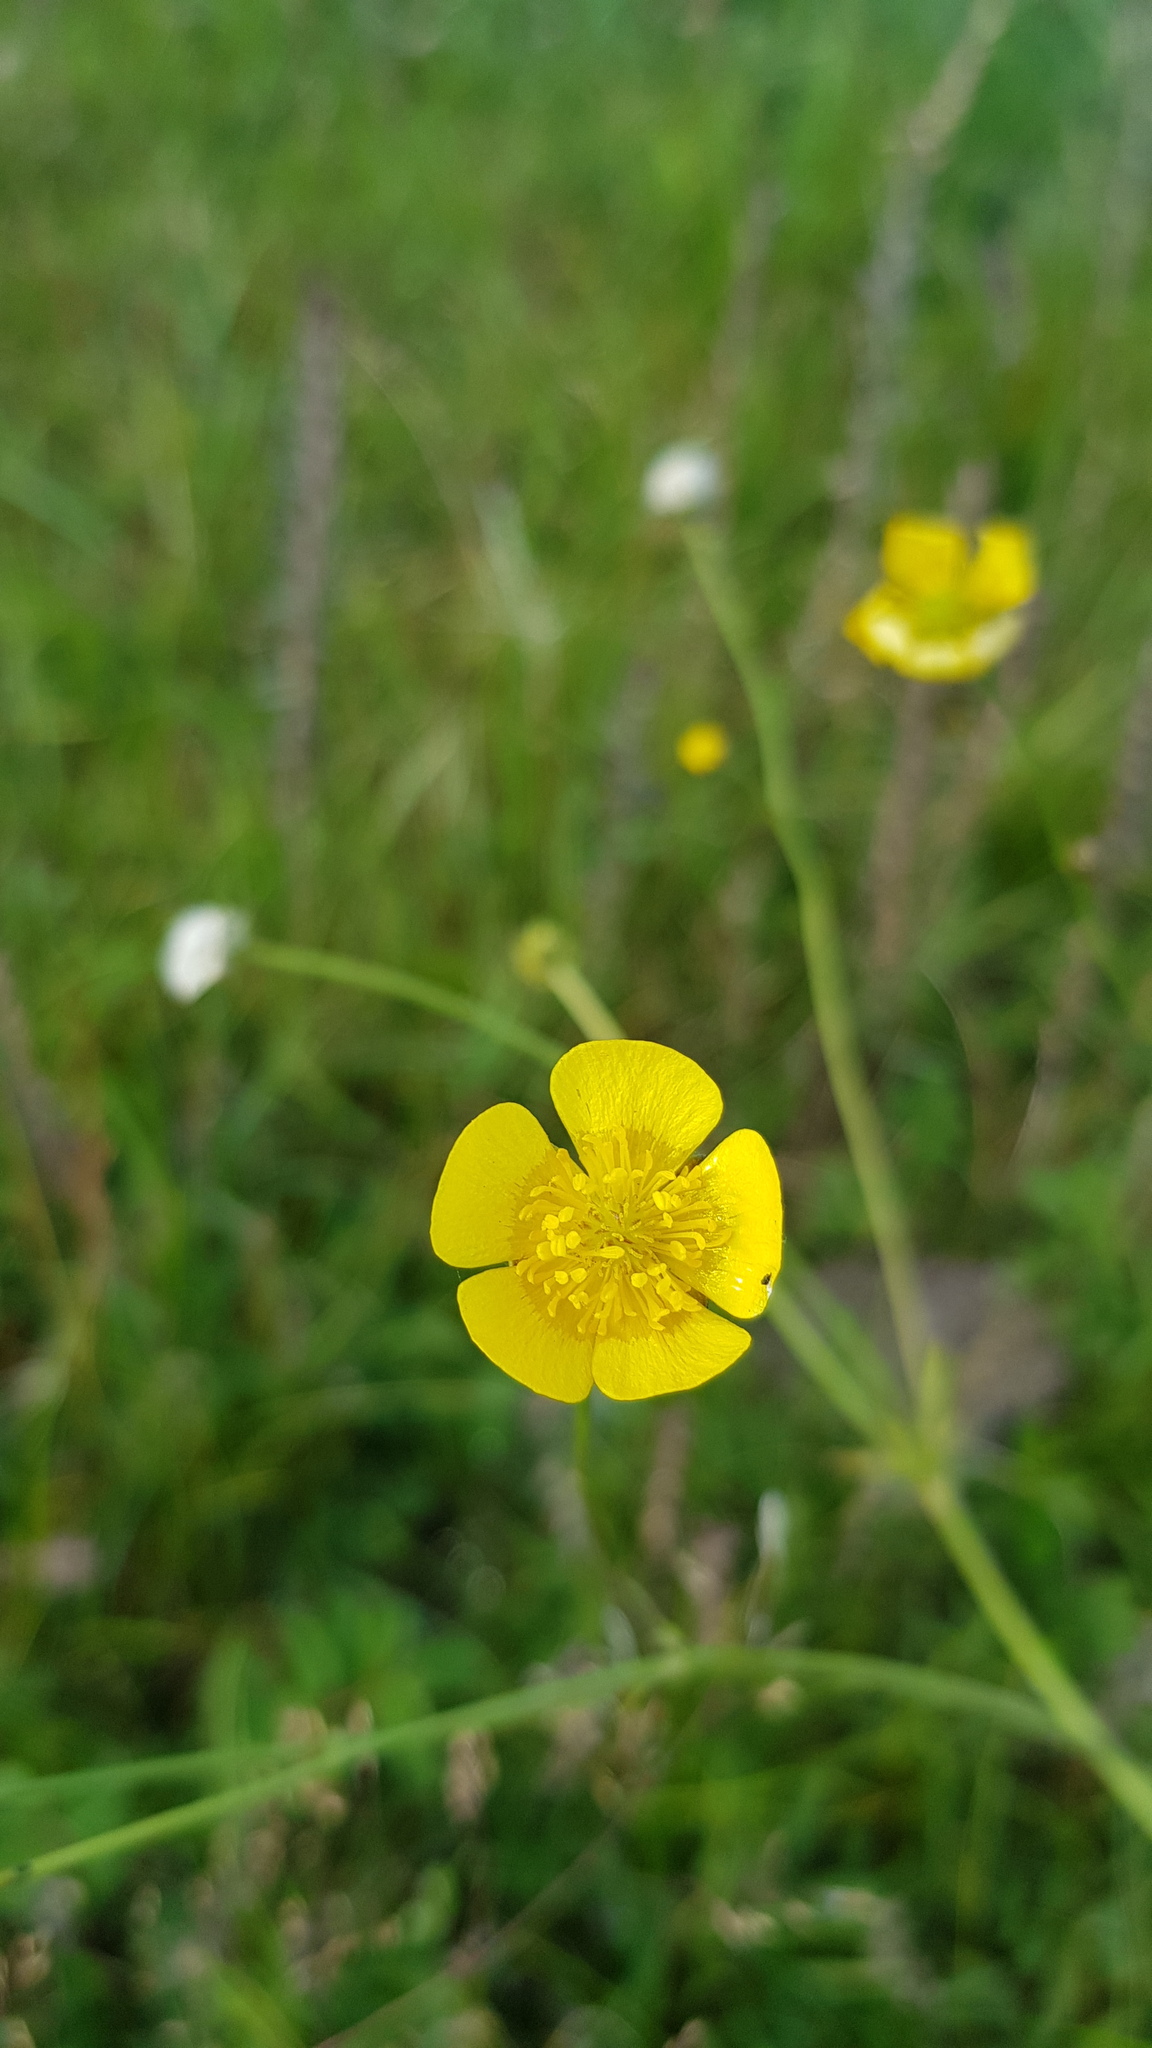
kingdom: Plantae
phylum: Tracheophyta
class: Magnoliopsida
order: Ranunculales
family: Ranunculaceae
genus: Ranunculus
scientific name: Ranunculus acris
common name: Meadow buttercup
